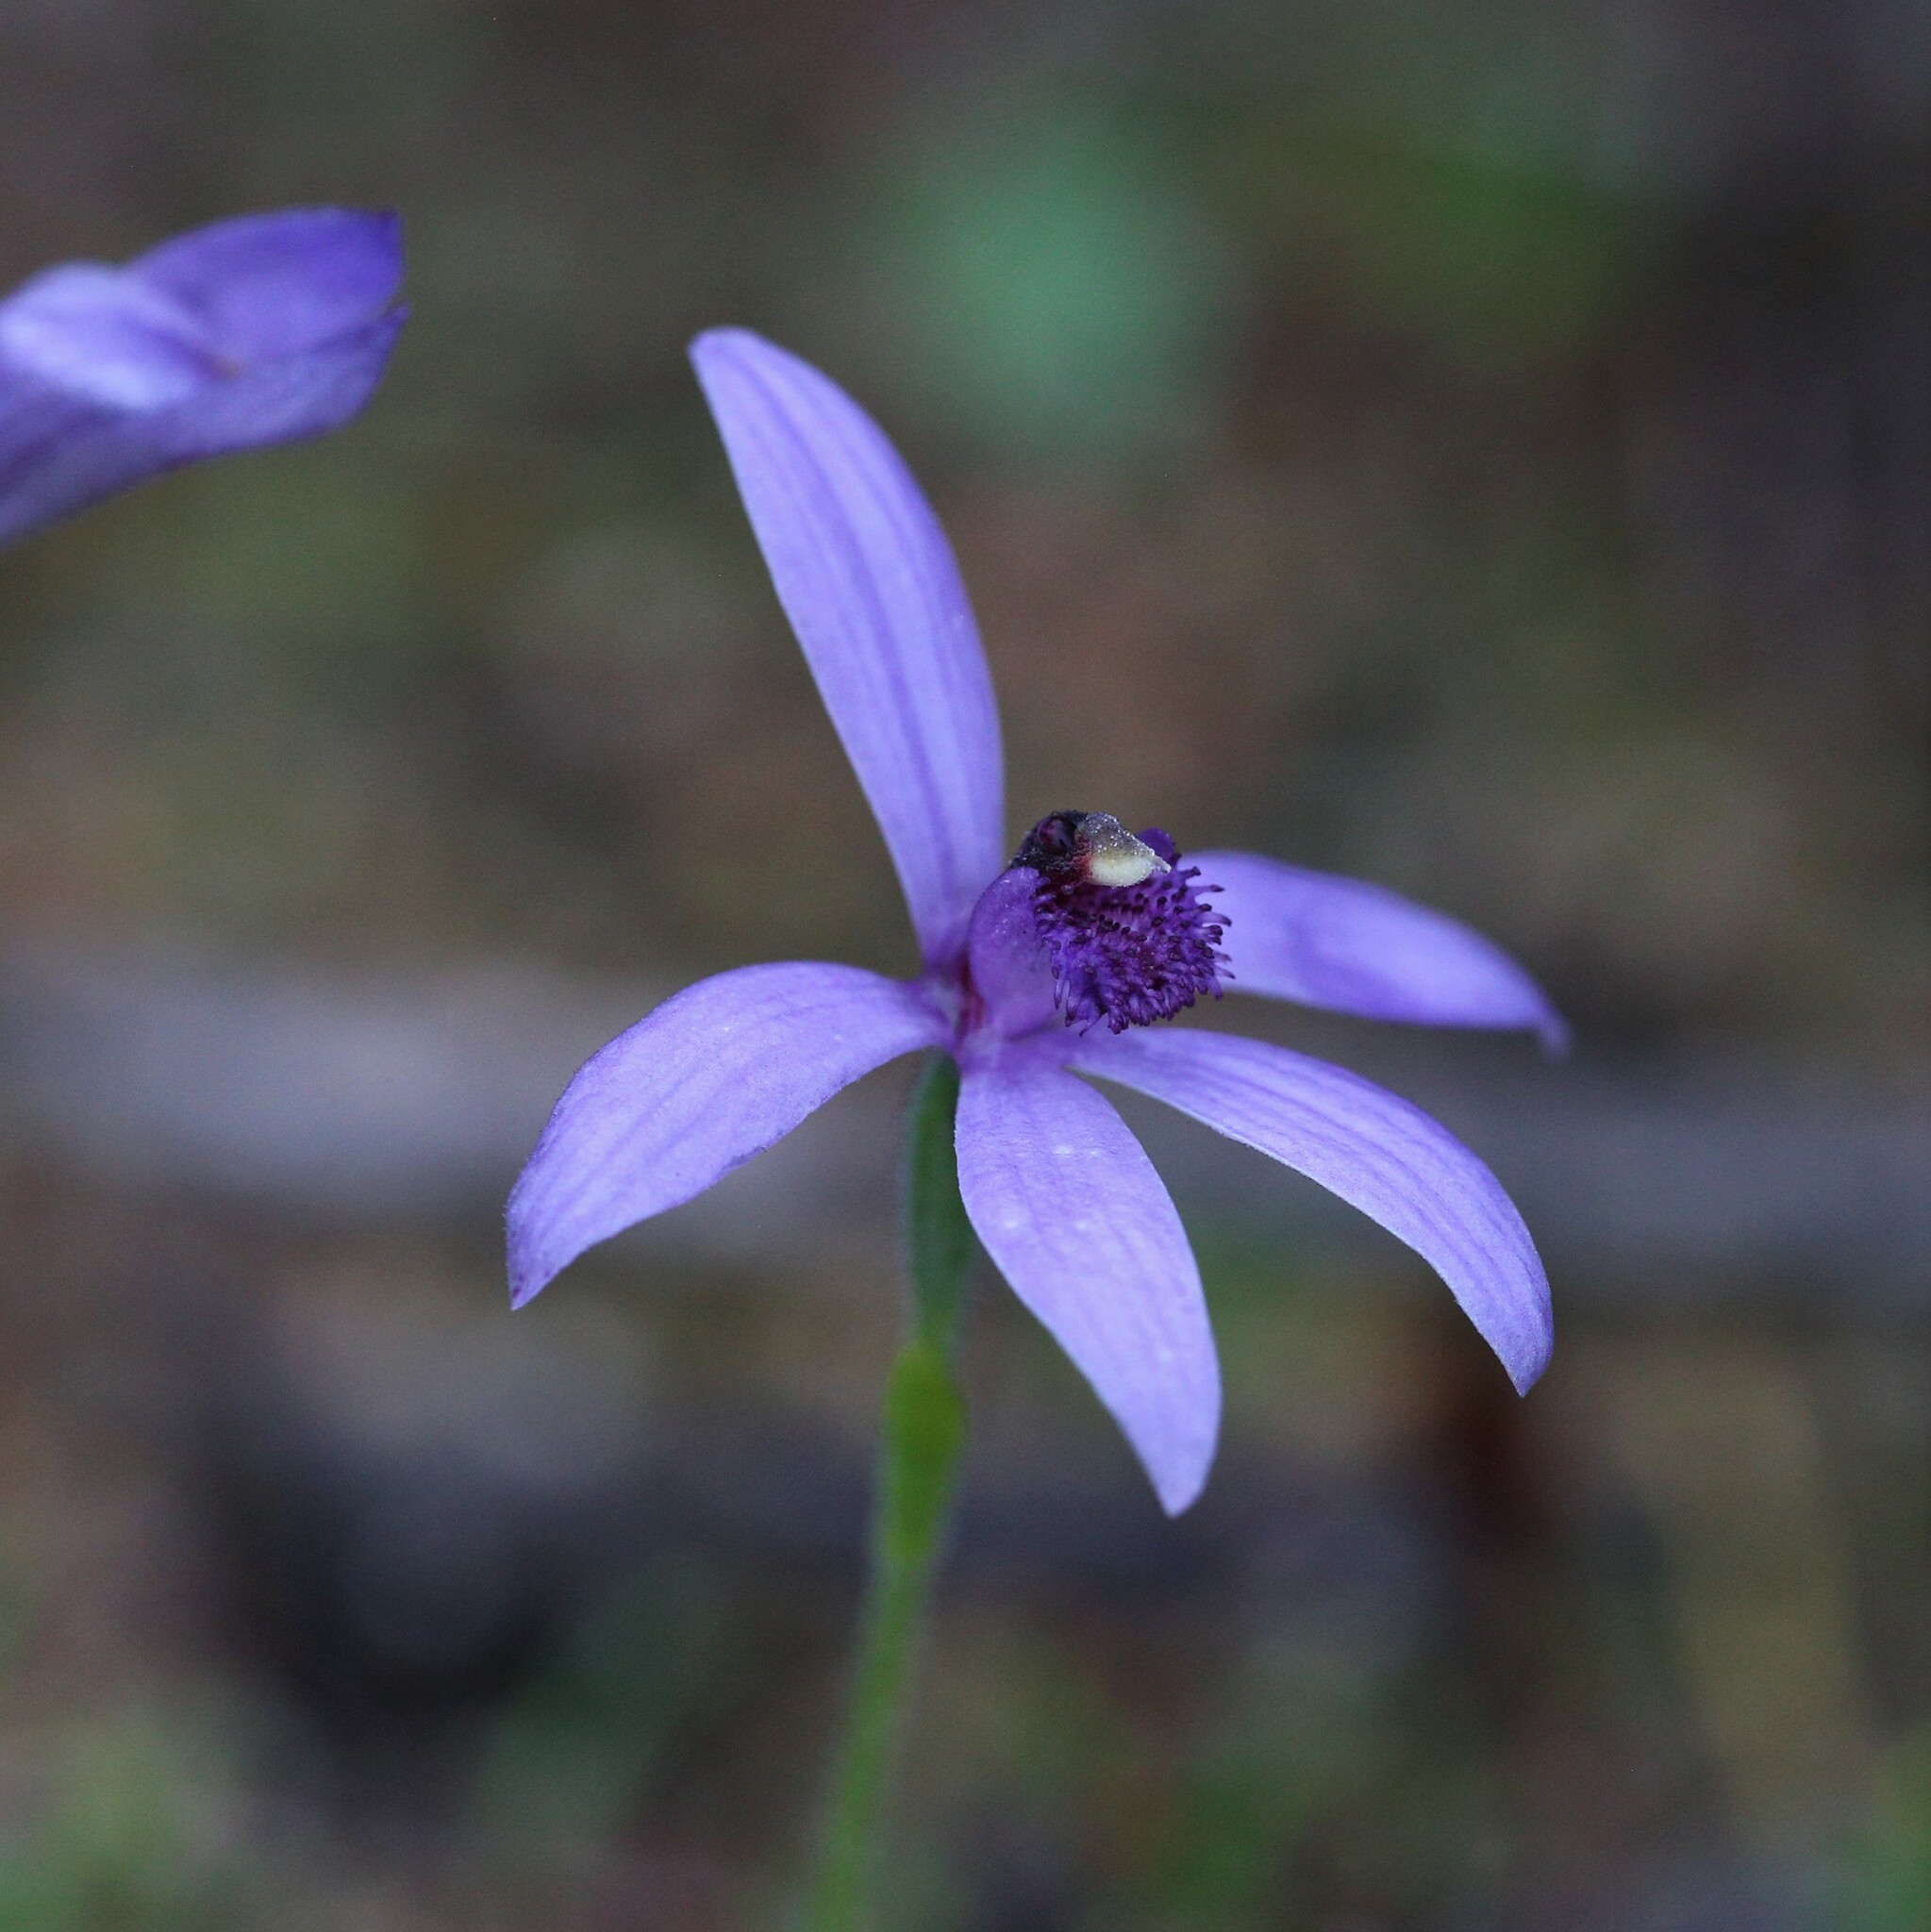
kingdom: Plantae
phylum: Tracheophyta
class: Liliopsida
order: Asparagales
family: Orchidaceae
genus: Pheladenia
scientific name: Pheladenia deformis
